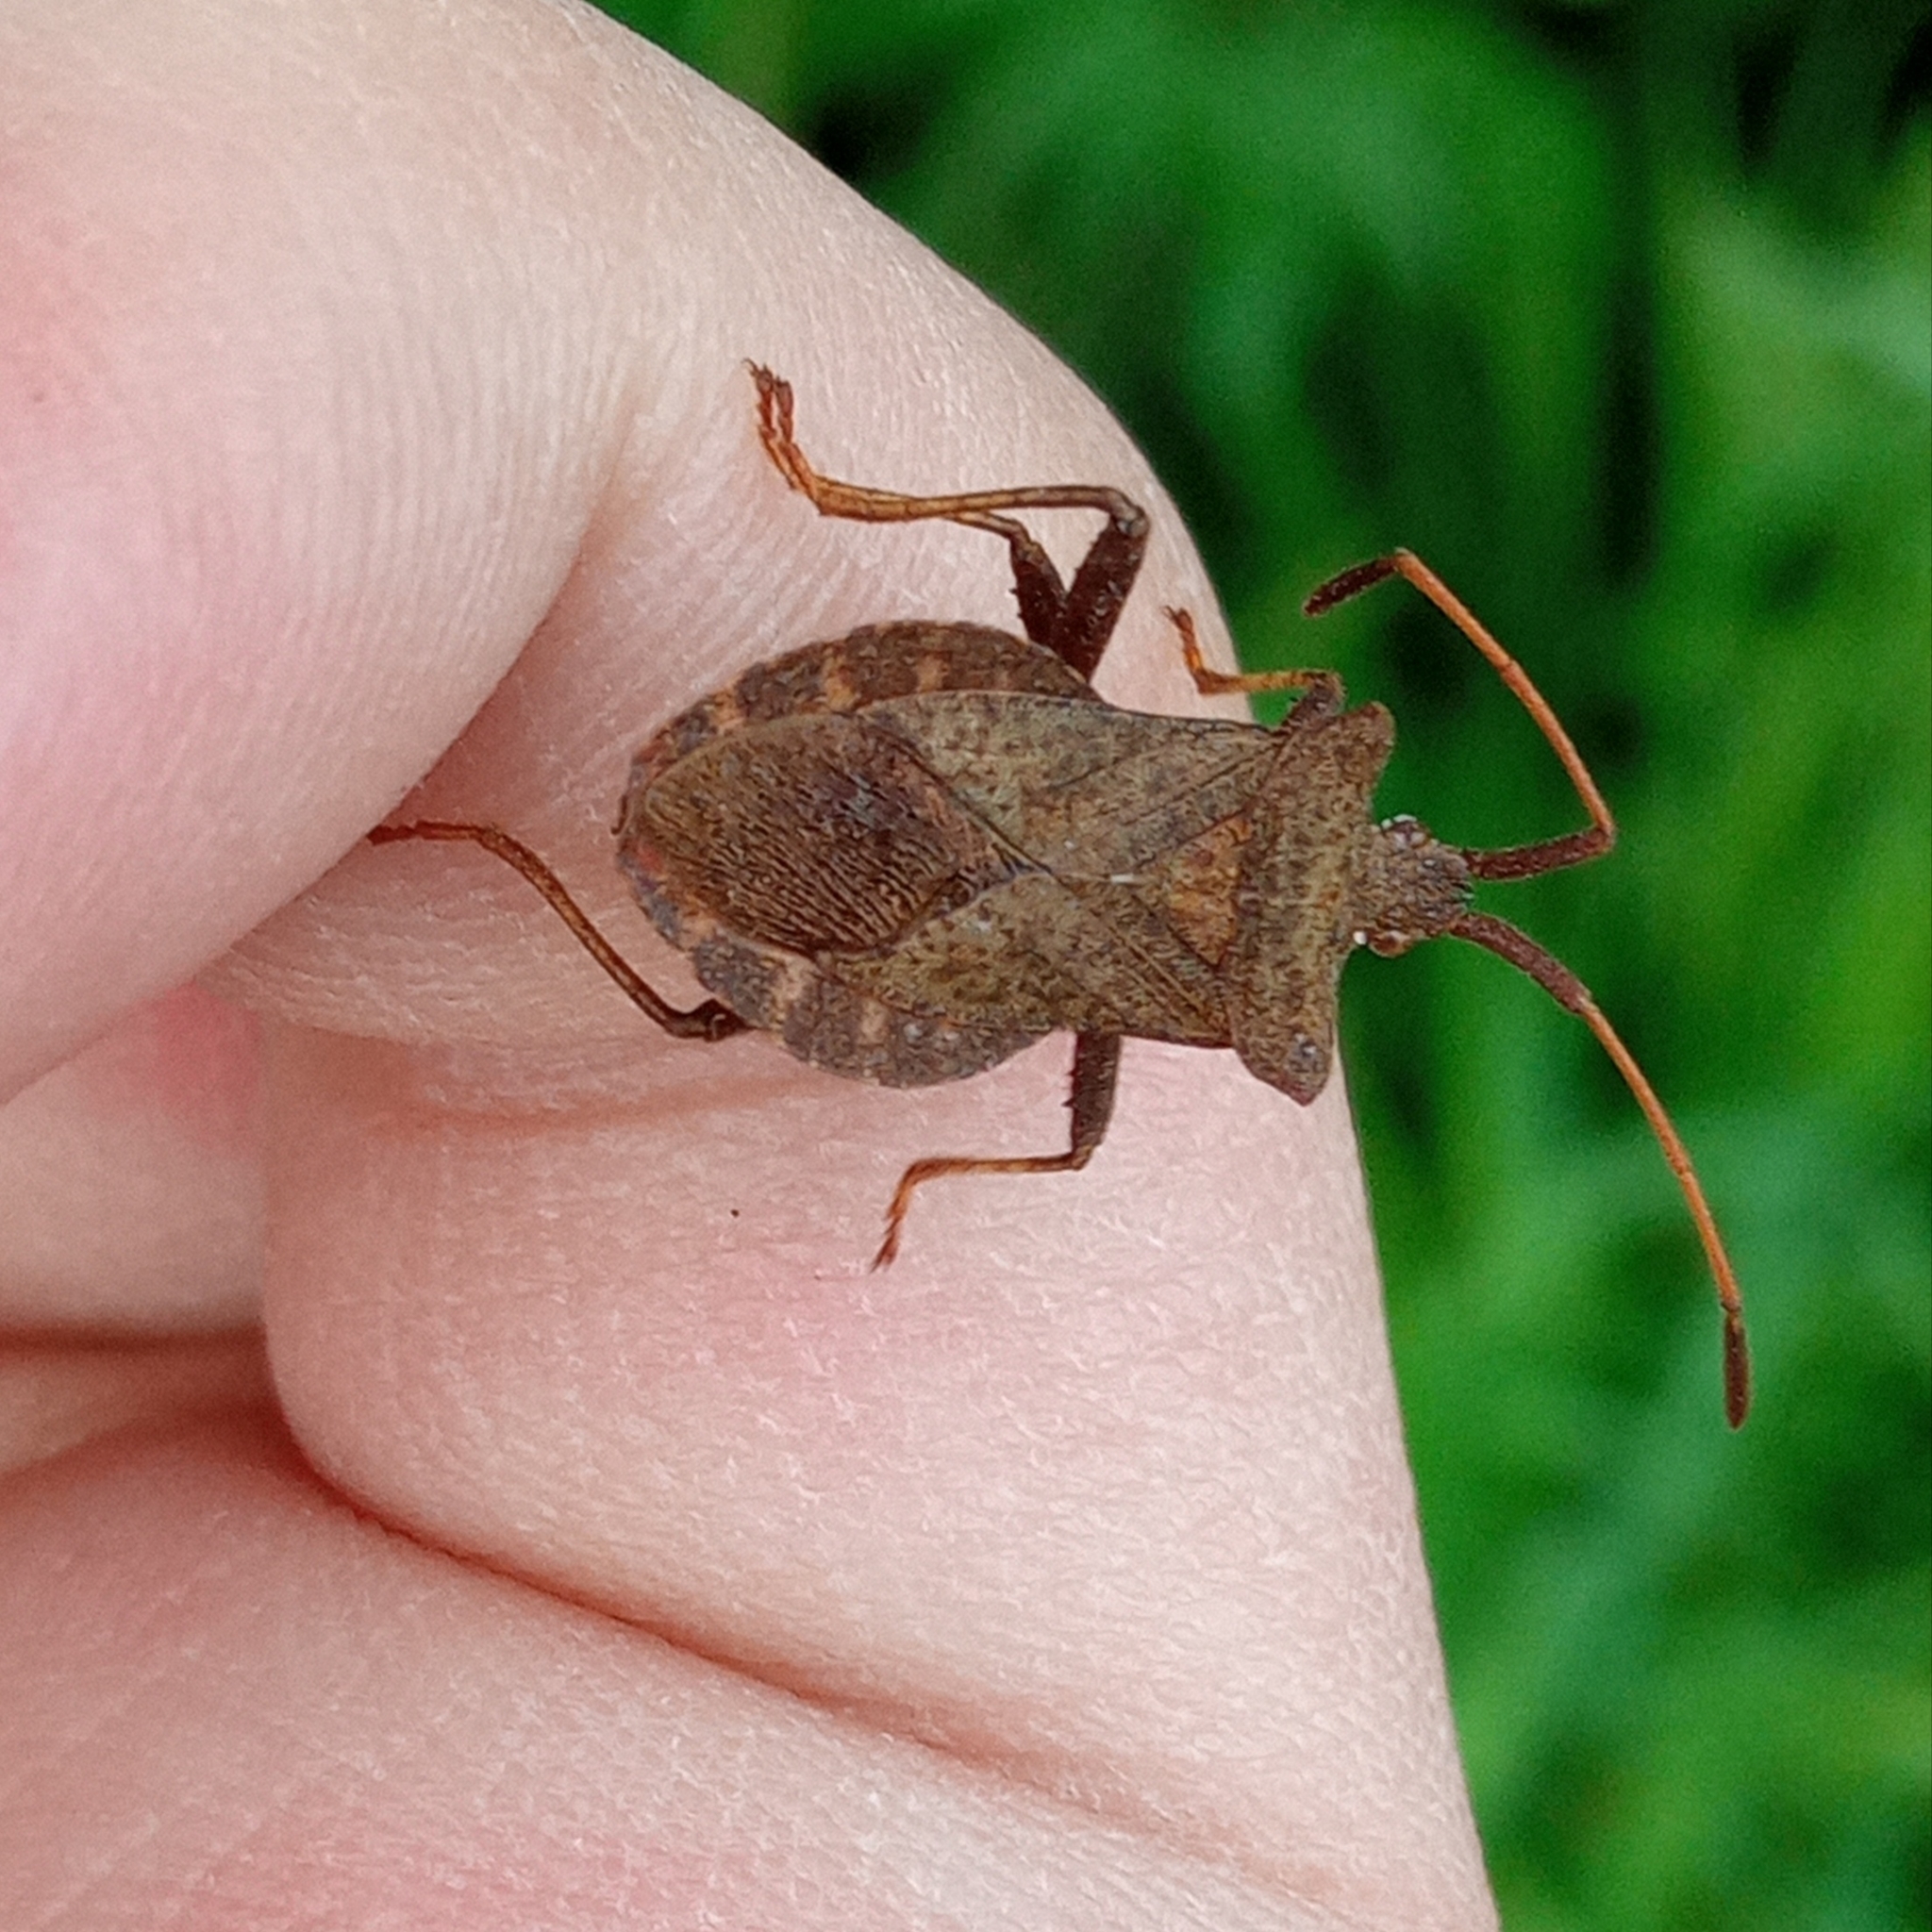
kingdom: Animalia
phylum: Arthropoda
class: Insecta
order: Hemiptera
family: Coreidae
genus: Coreus
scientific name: Coreus marginatus
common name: Dock bug
